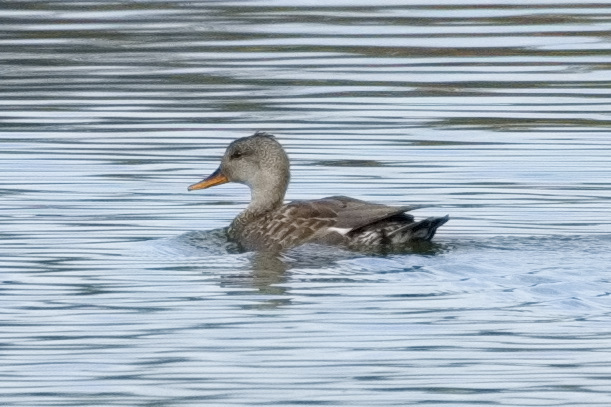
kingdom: Animalia
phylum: Chordata
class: Aves
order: Anseriformes
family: Anatidae
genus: Mareca
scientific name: Mareca strepera
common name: Gadwall
